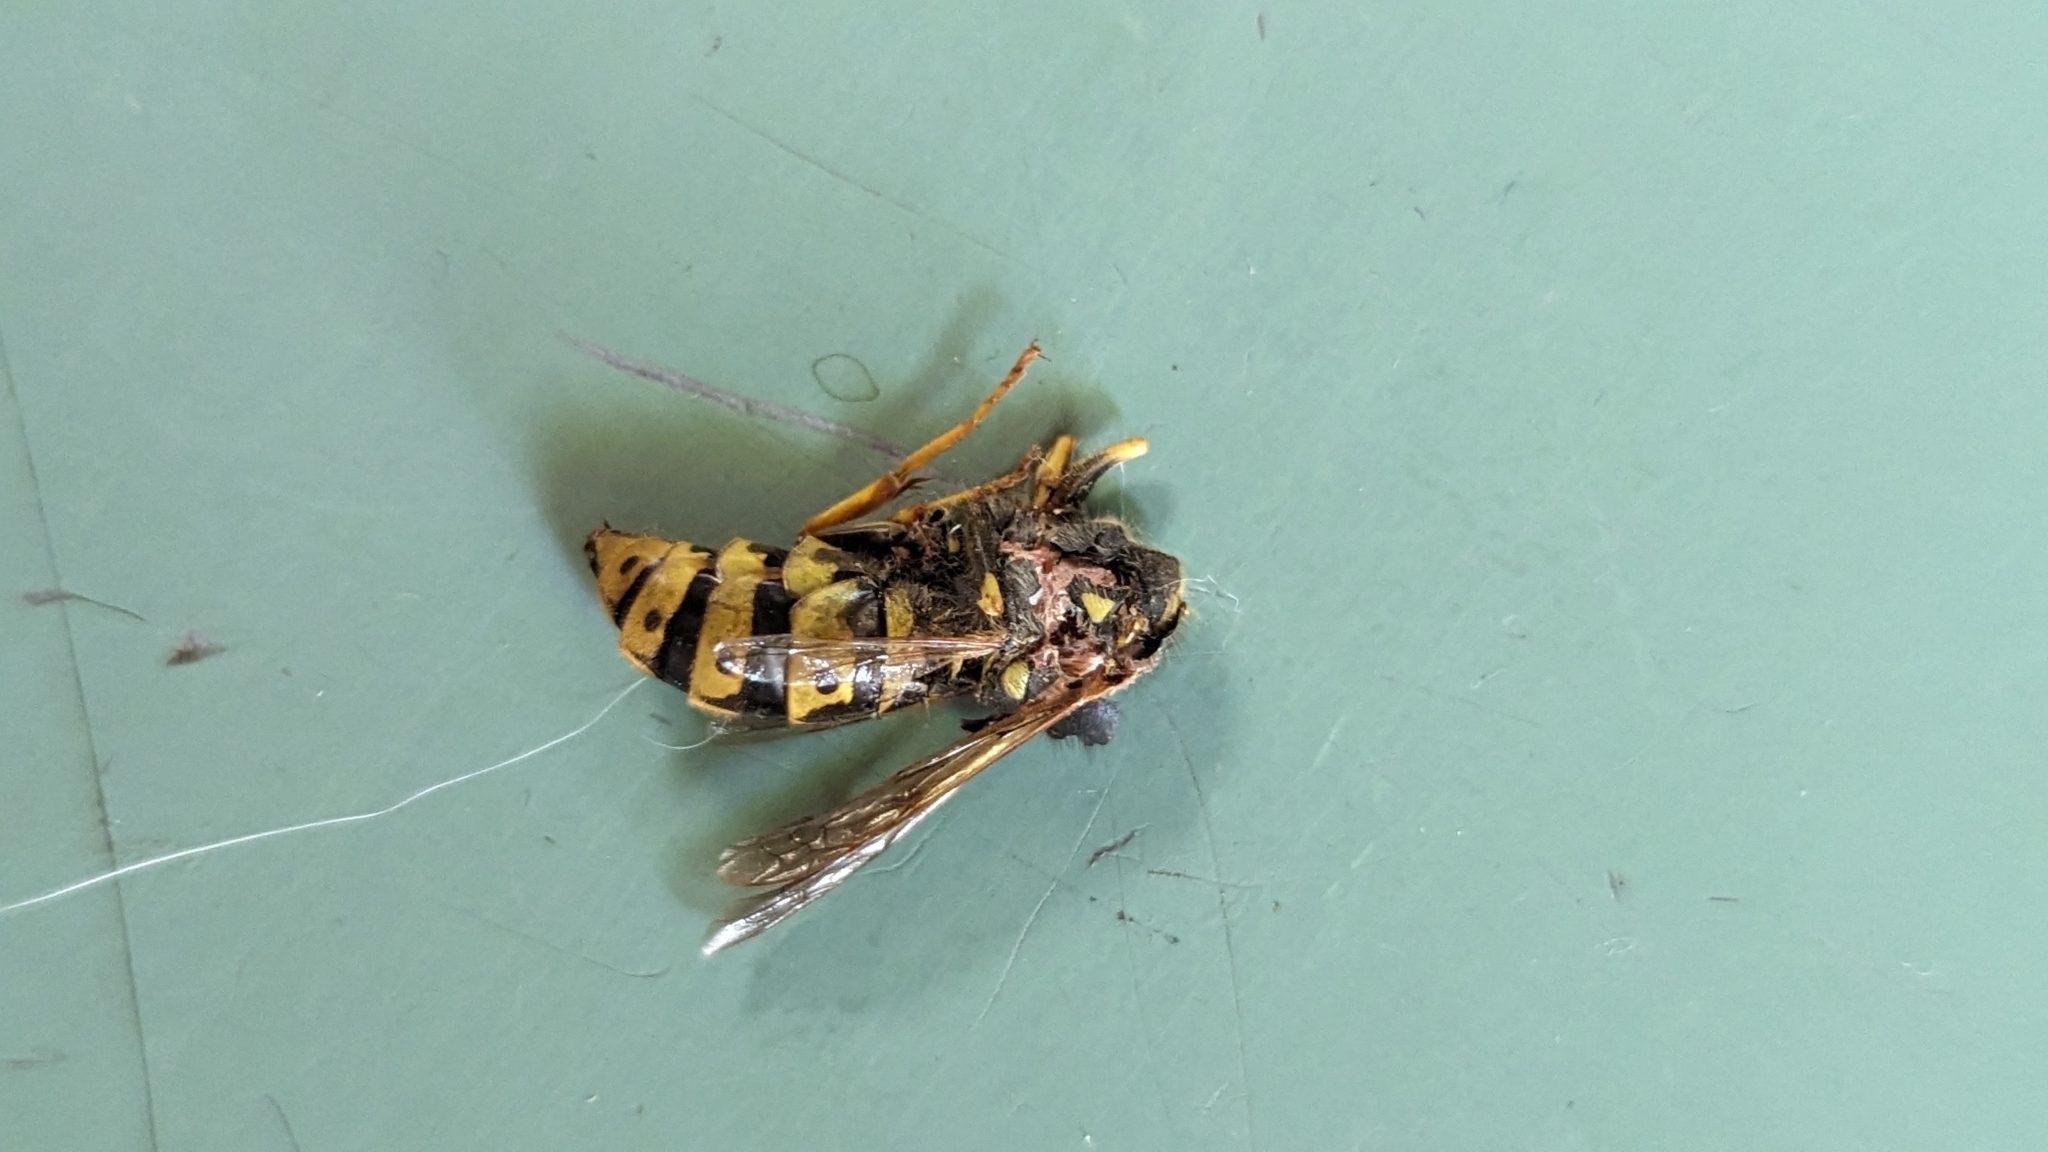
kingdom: Animalia
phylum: Arthropoda
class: Insecta
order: Hymenoptera
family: Vespidae
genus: Vespula
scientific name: Vespula germanica
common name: German wasp
